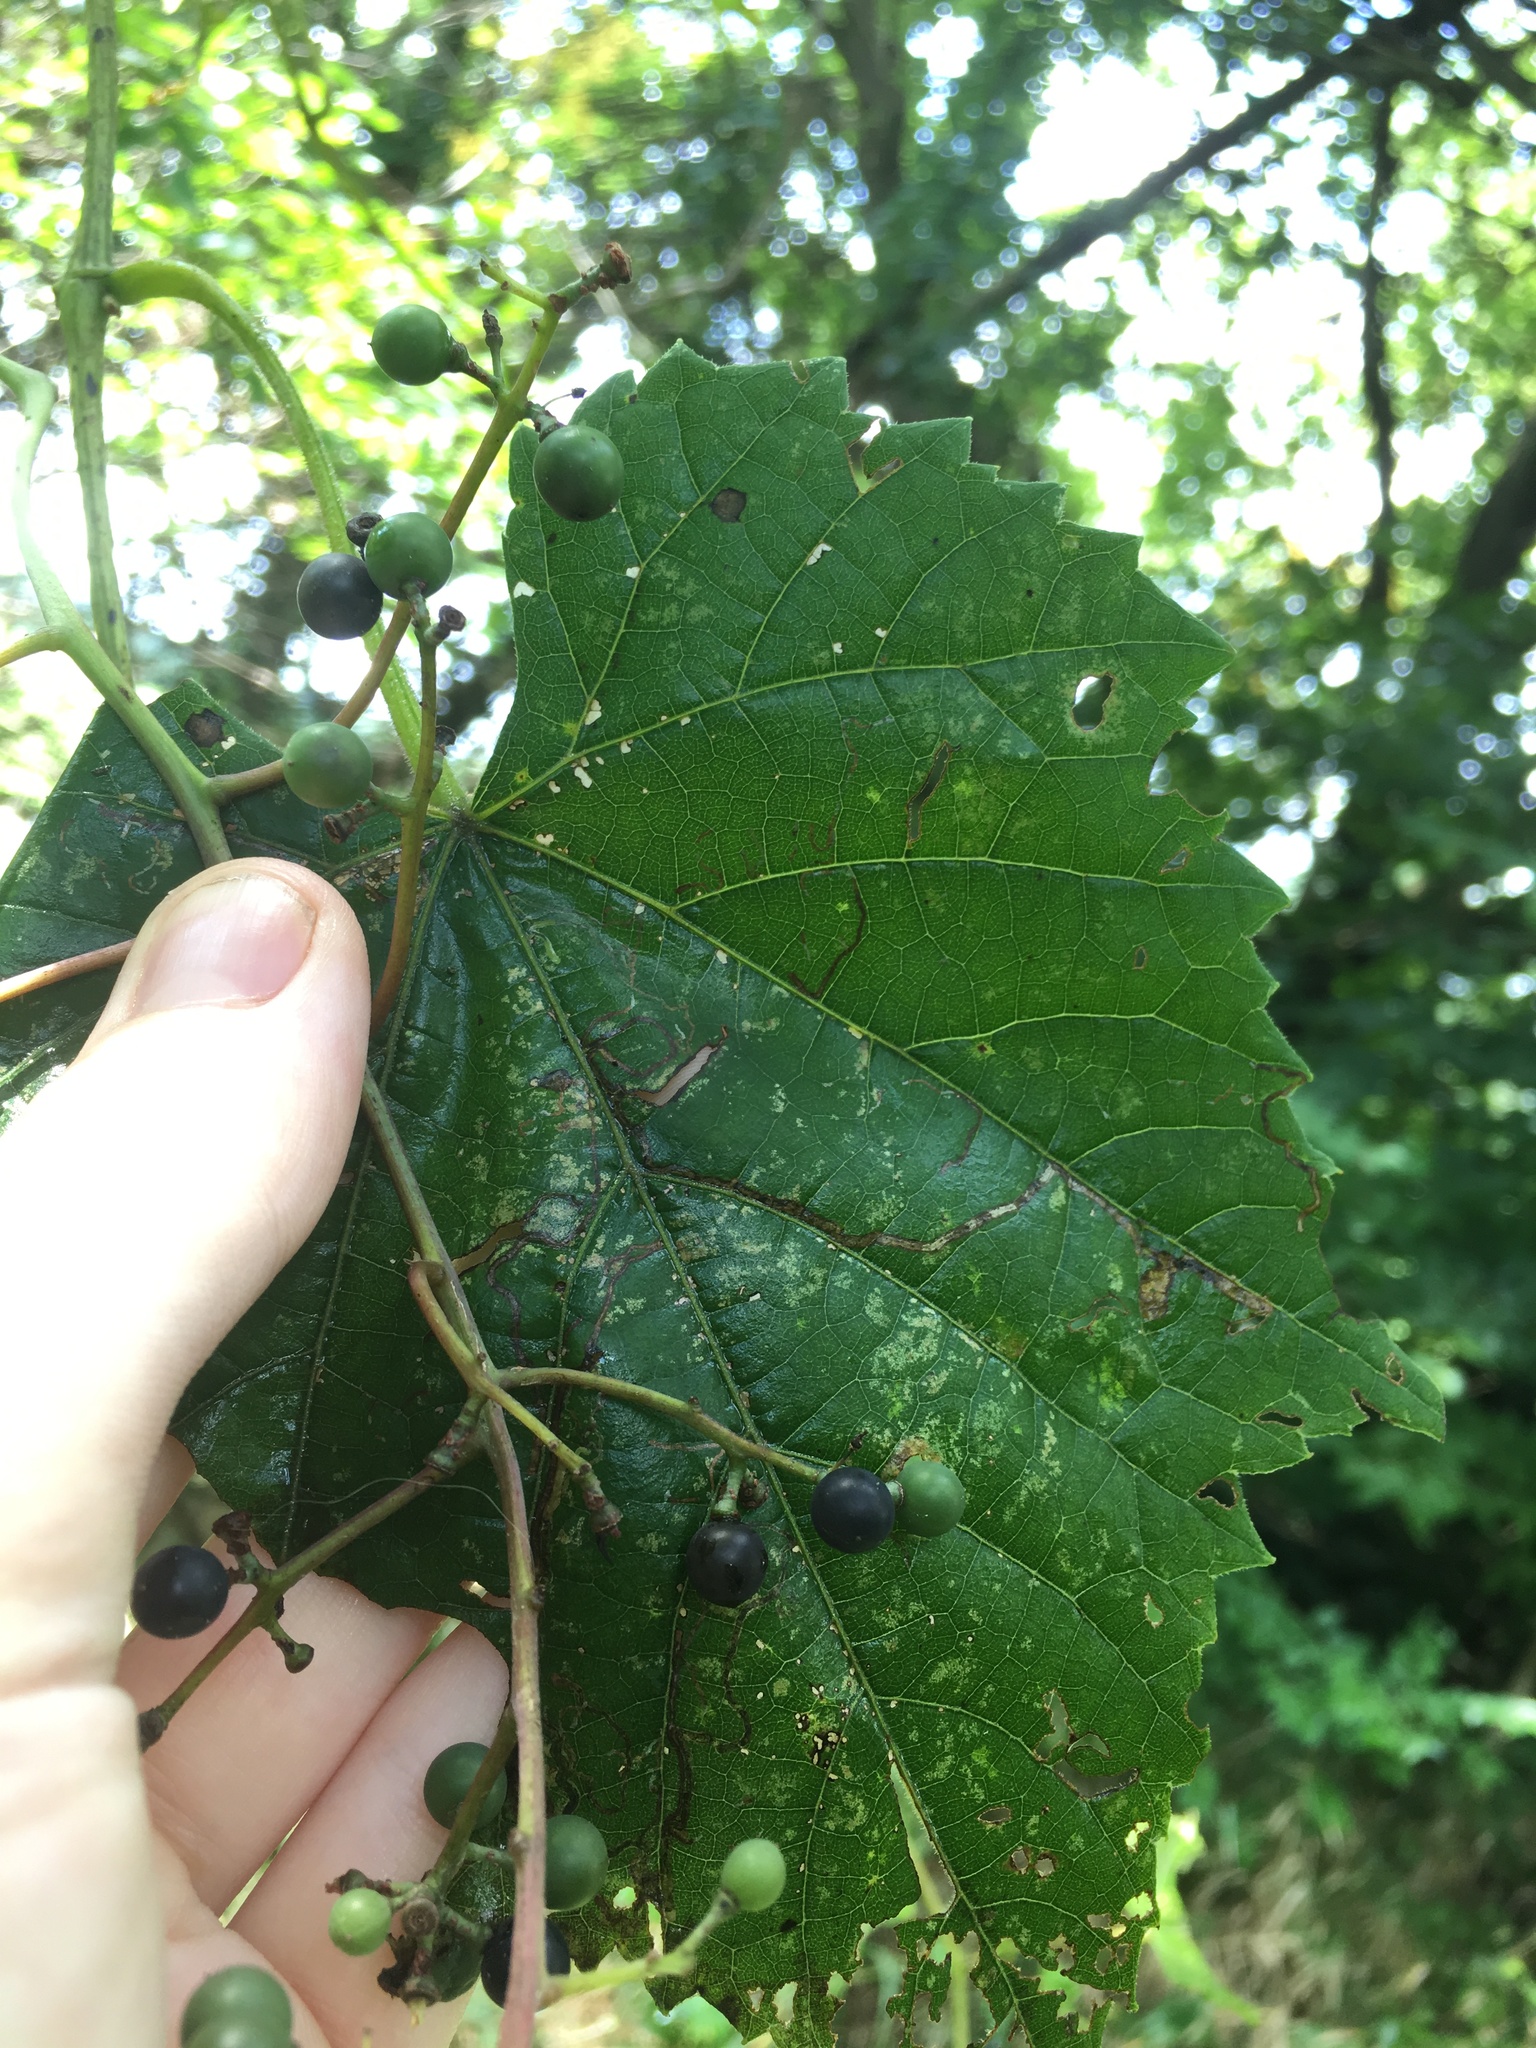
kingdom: Plantae
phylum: Tracheophyta
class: Magnoliopsida
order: Vitales
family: Vitaceae
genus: Vitis
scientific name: Vitis vulpina
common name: Frost grape
